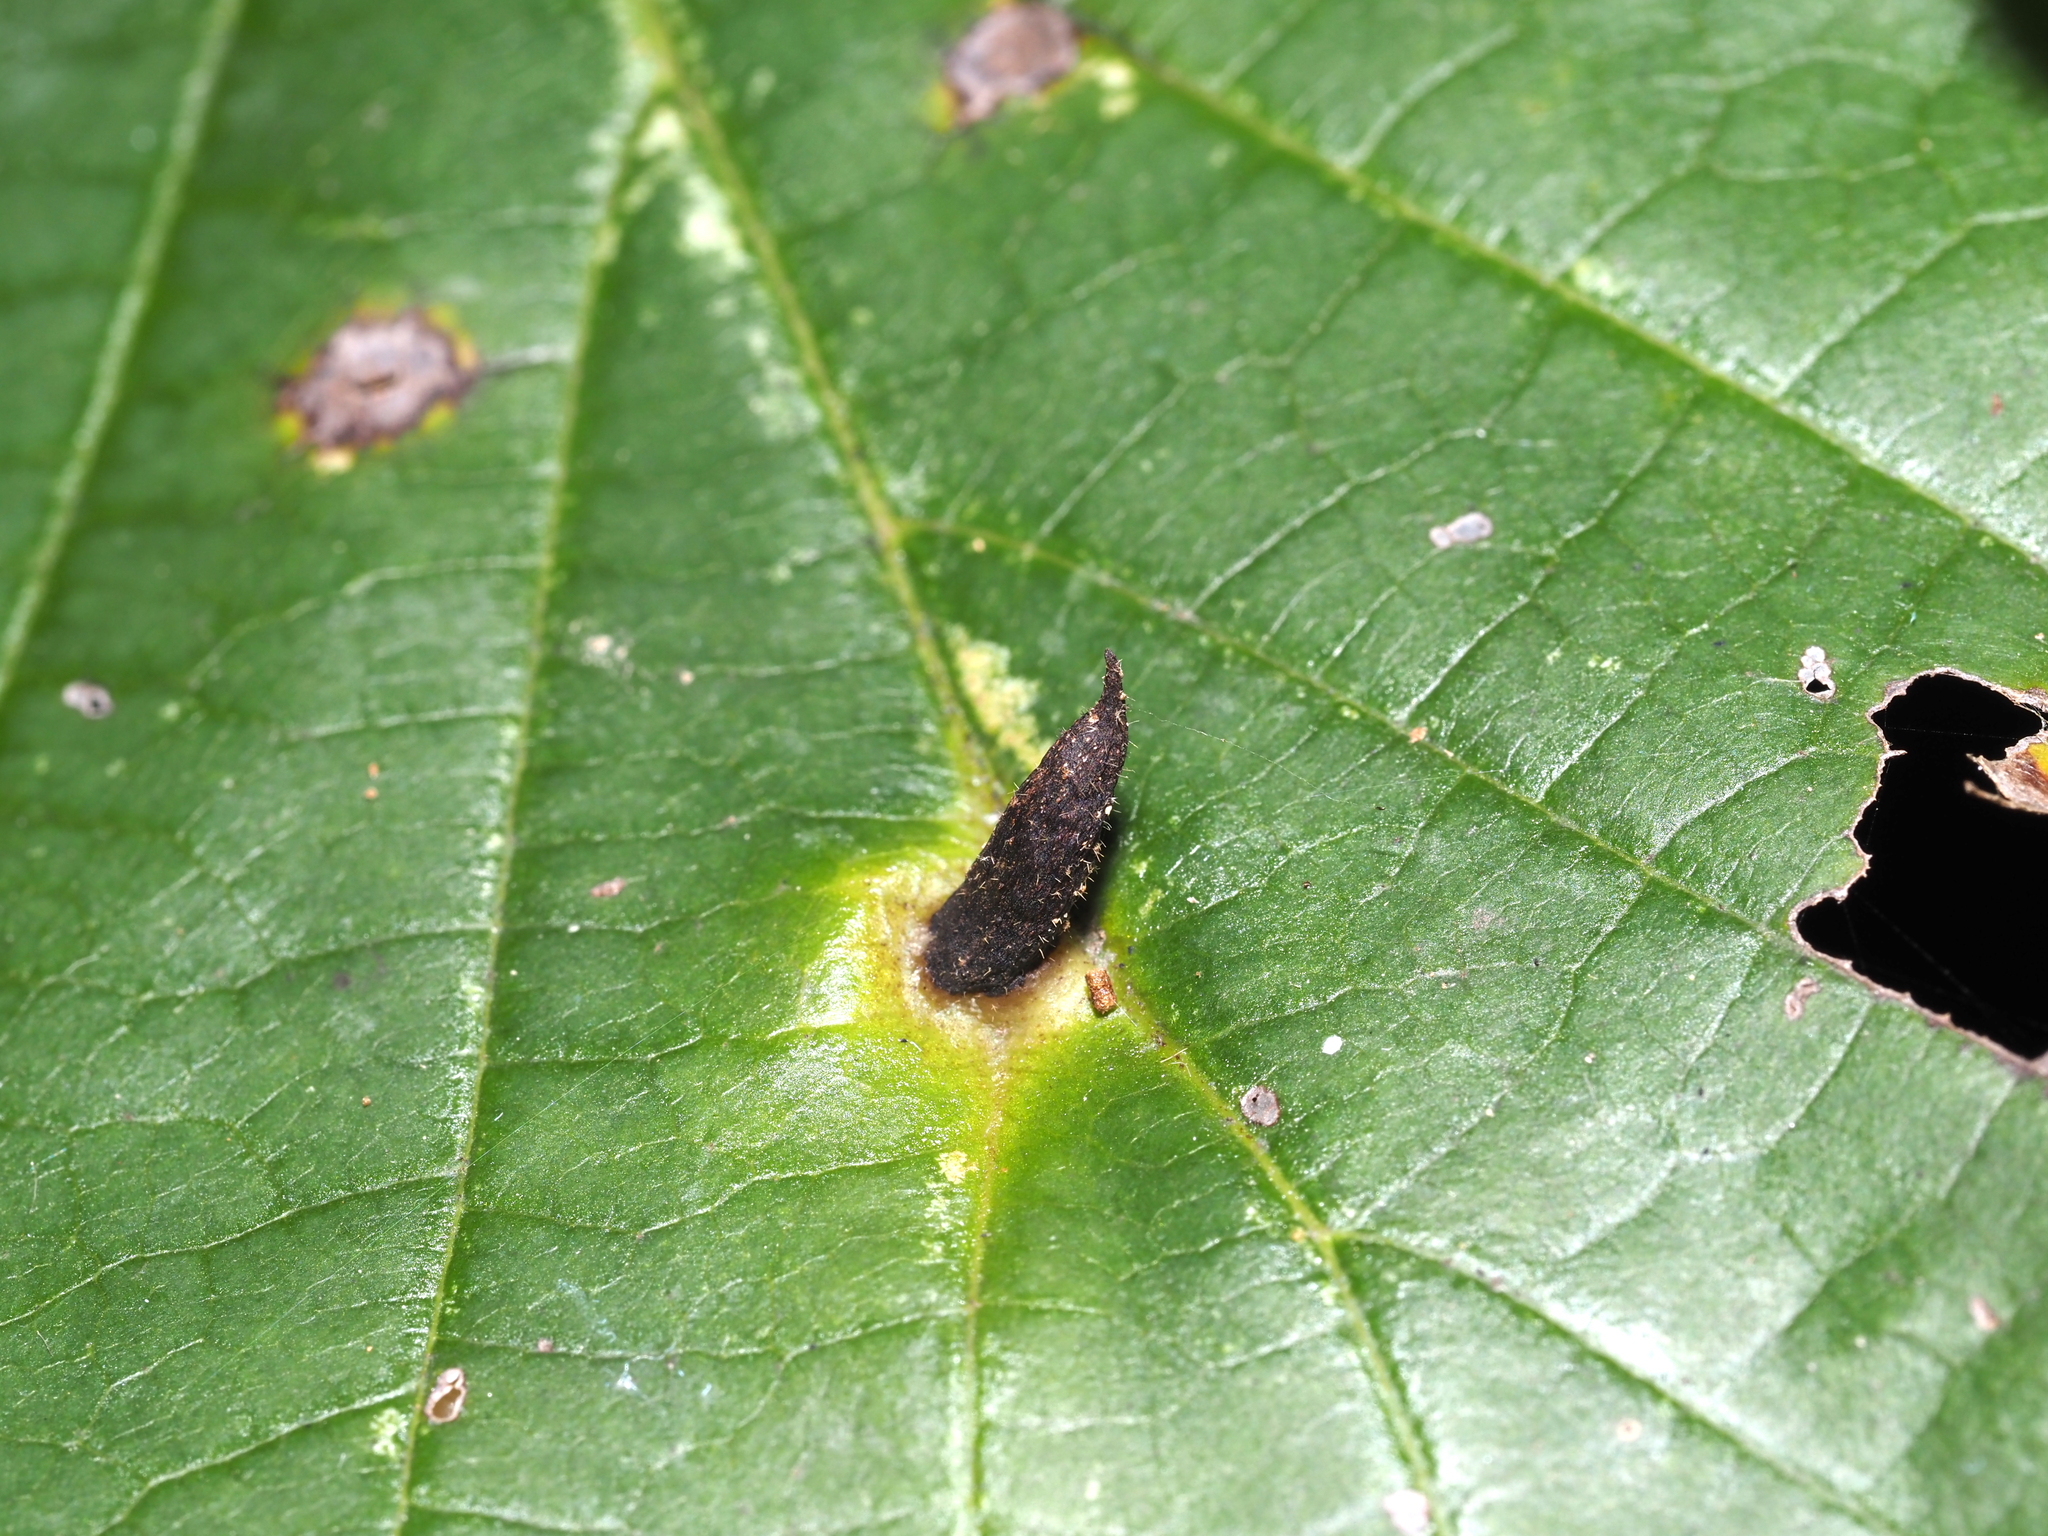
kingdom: Animalia
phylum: Arthropoda
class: Insecta
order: Hemiptera
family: Aphididae
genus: Hormaphis
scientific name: Hormaphis hamamelidis
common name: Witch-hazel cone gall aphid
